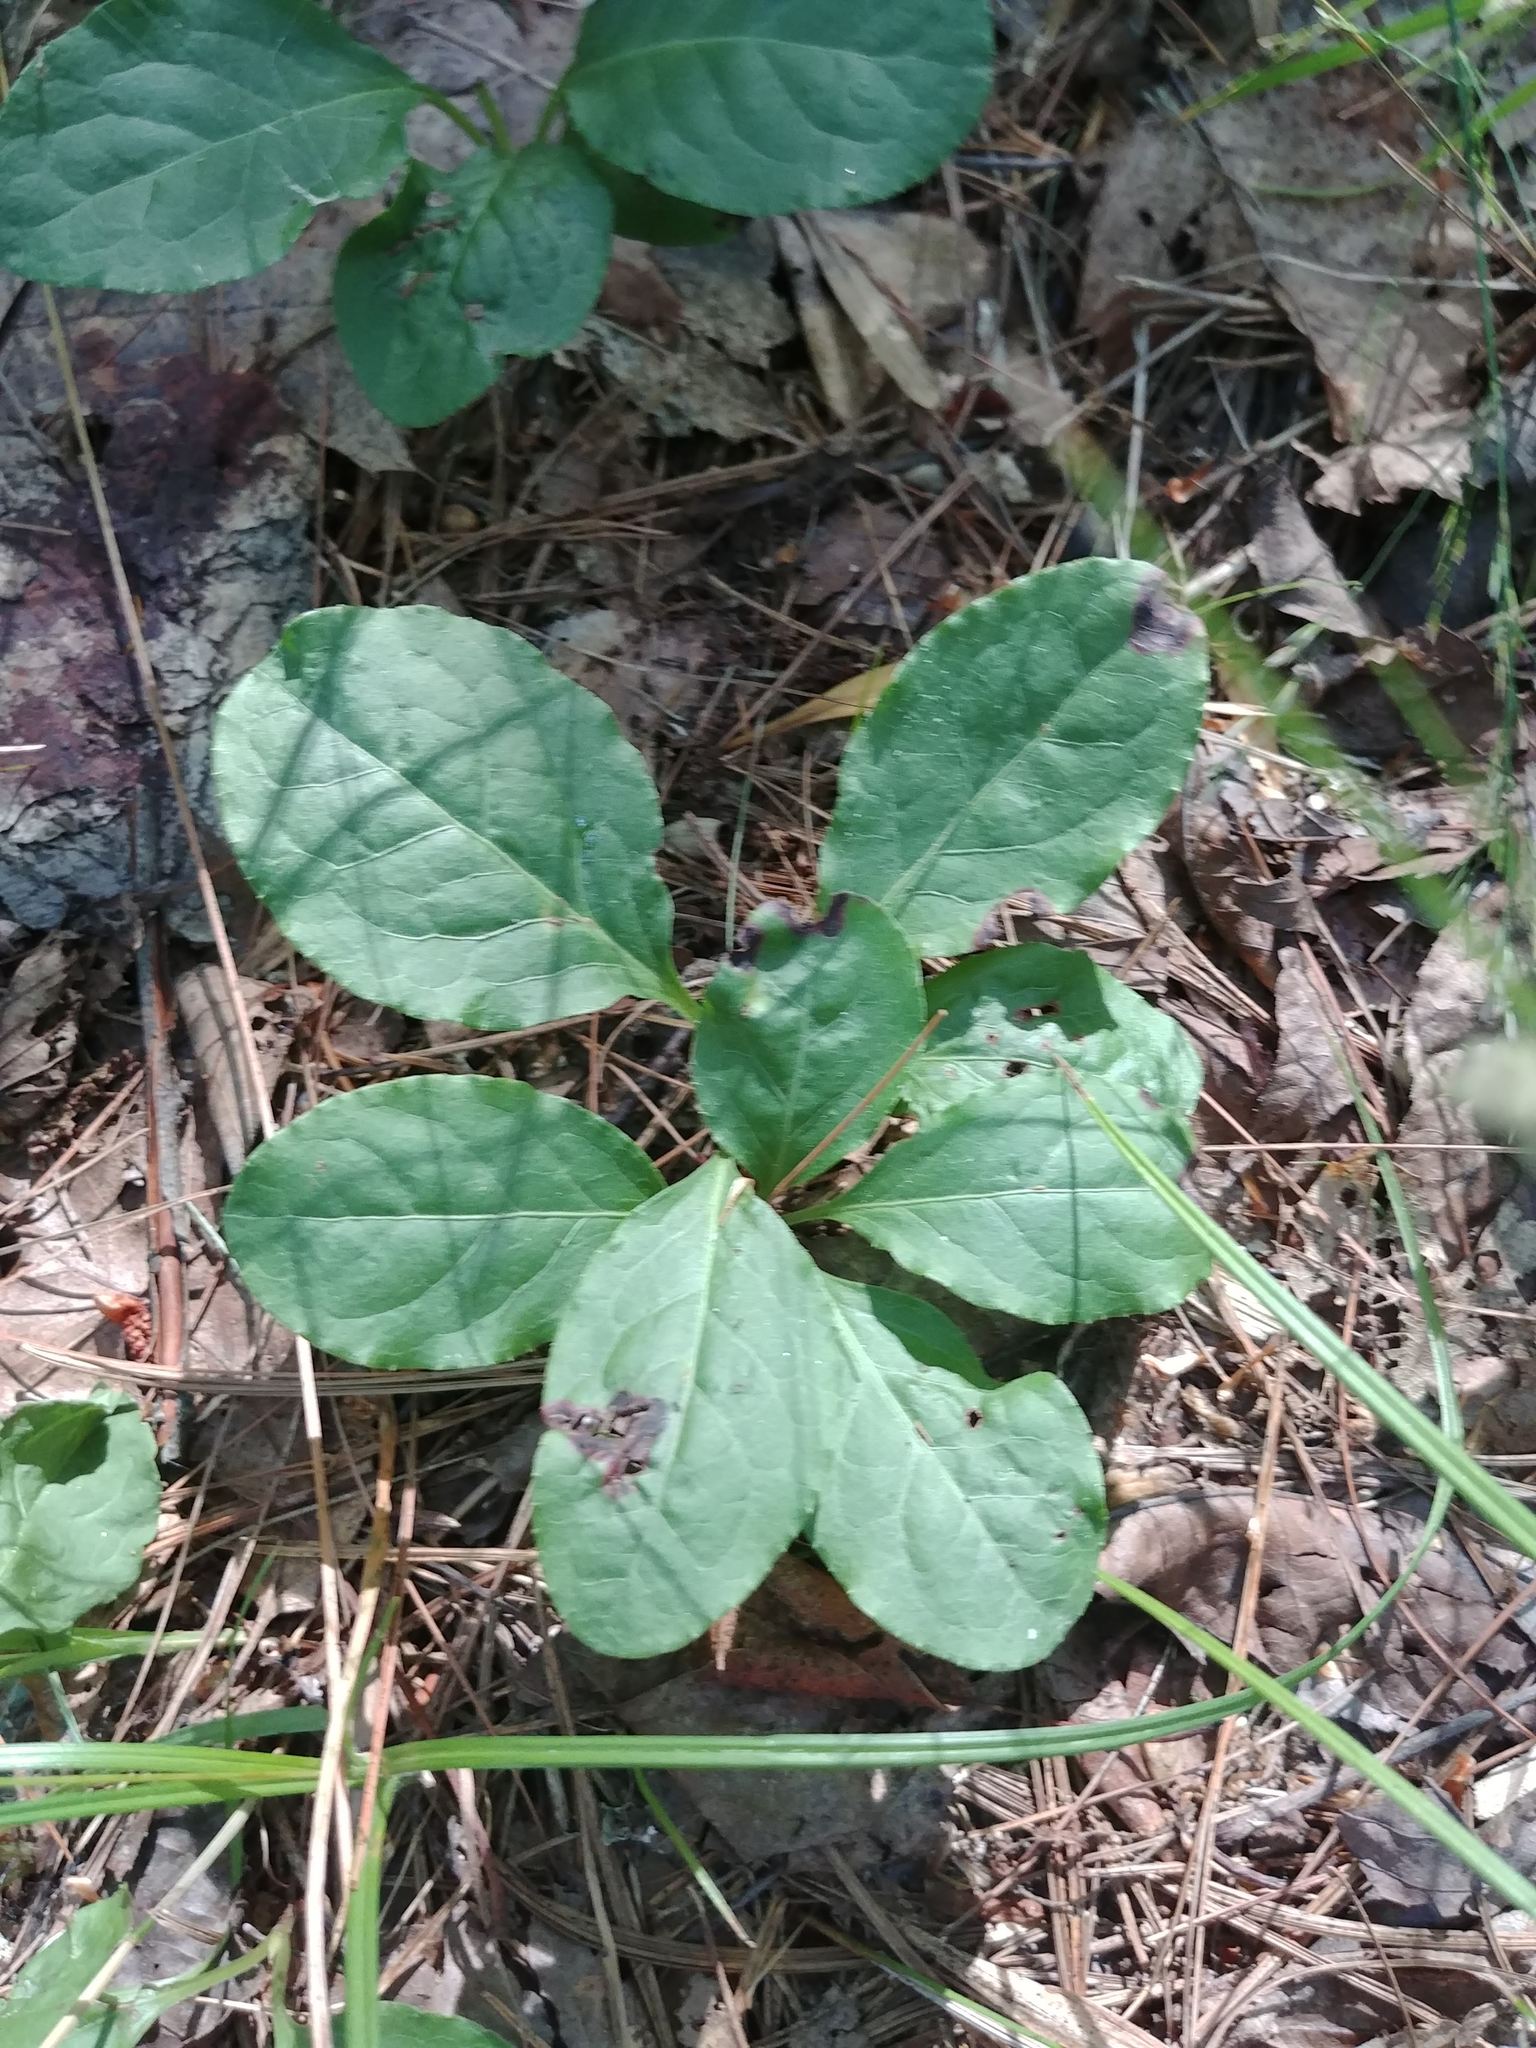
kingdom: Plantae
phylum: Tracheophyta
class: Magnoliopsida
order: Ericales
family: Ericaceae
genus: Pyrola
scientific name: Pyrola elliptica
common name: Shinleaf
